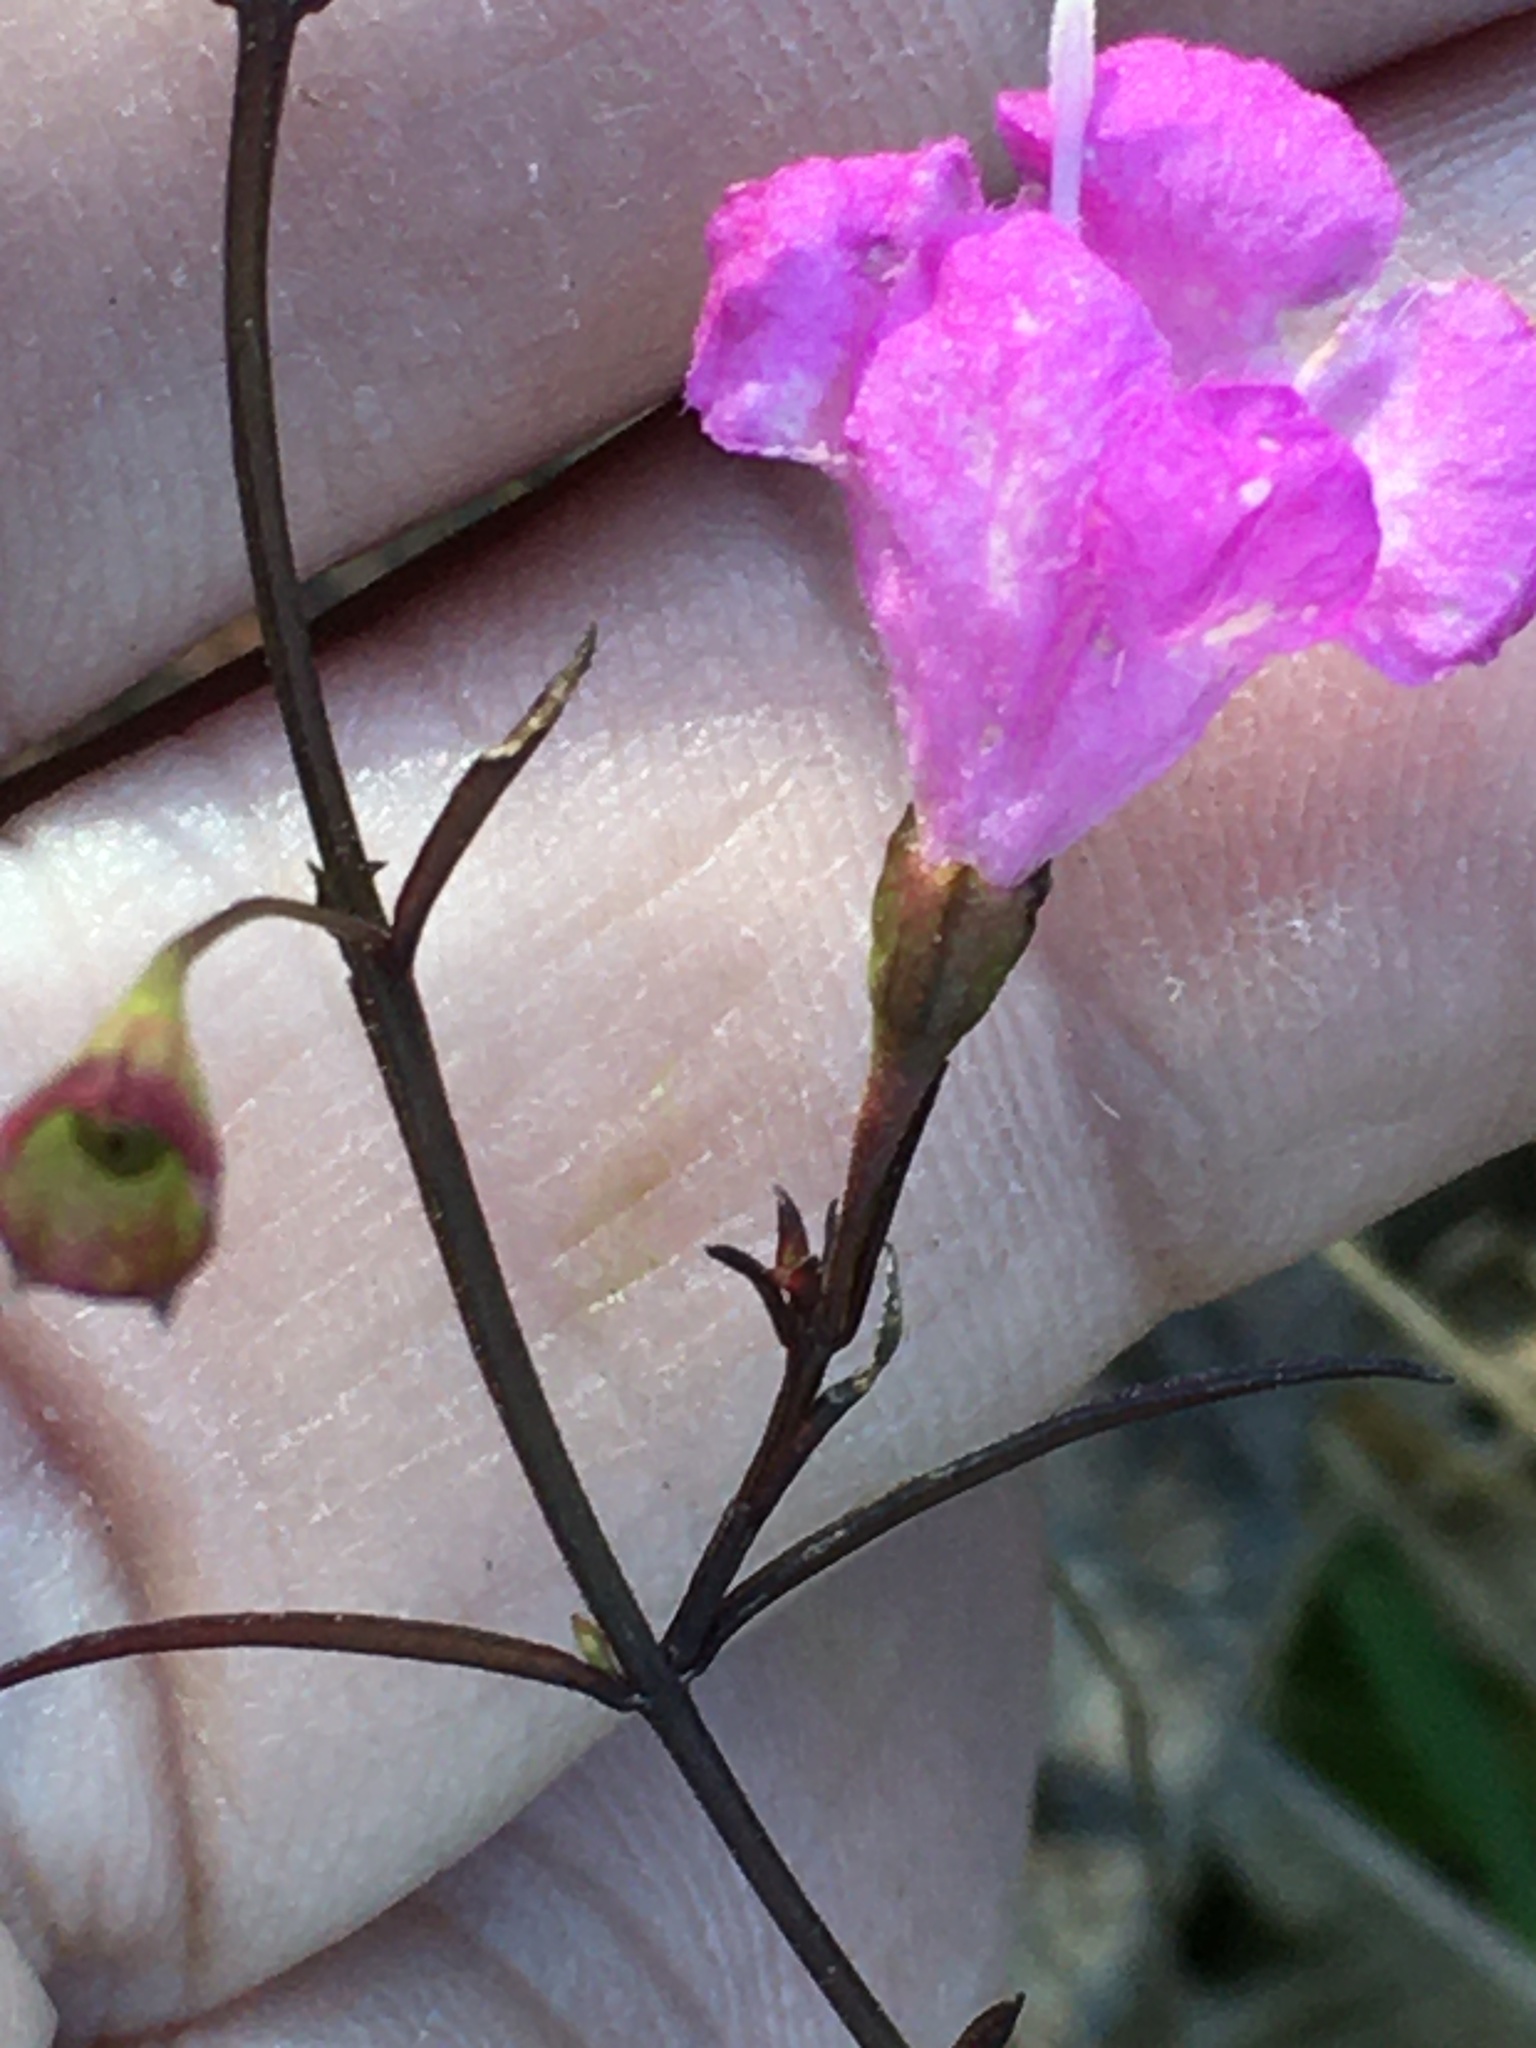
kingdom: Plantae
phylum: Tracheophyta
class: Magnoliopsida
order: Lamiales
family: Orobanchaceae
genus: Agalinis
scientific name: Agalinis tenuifolia
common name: Slender agalinis
